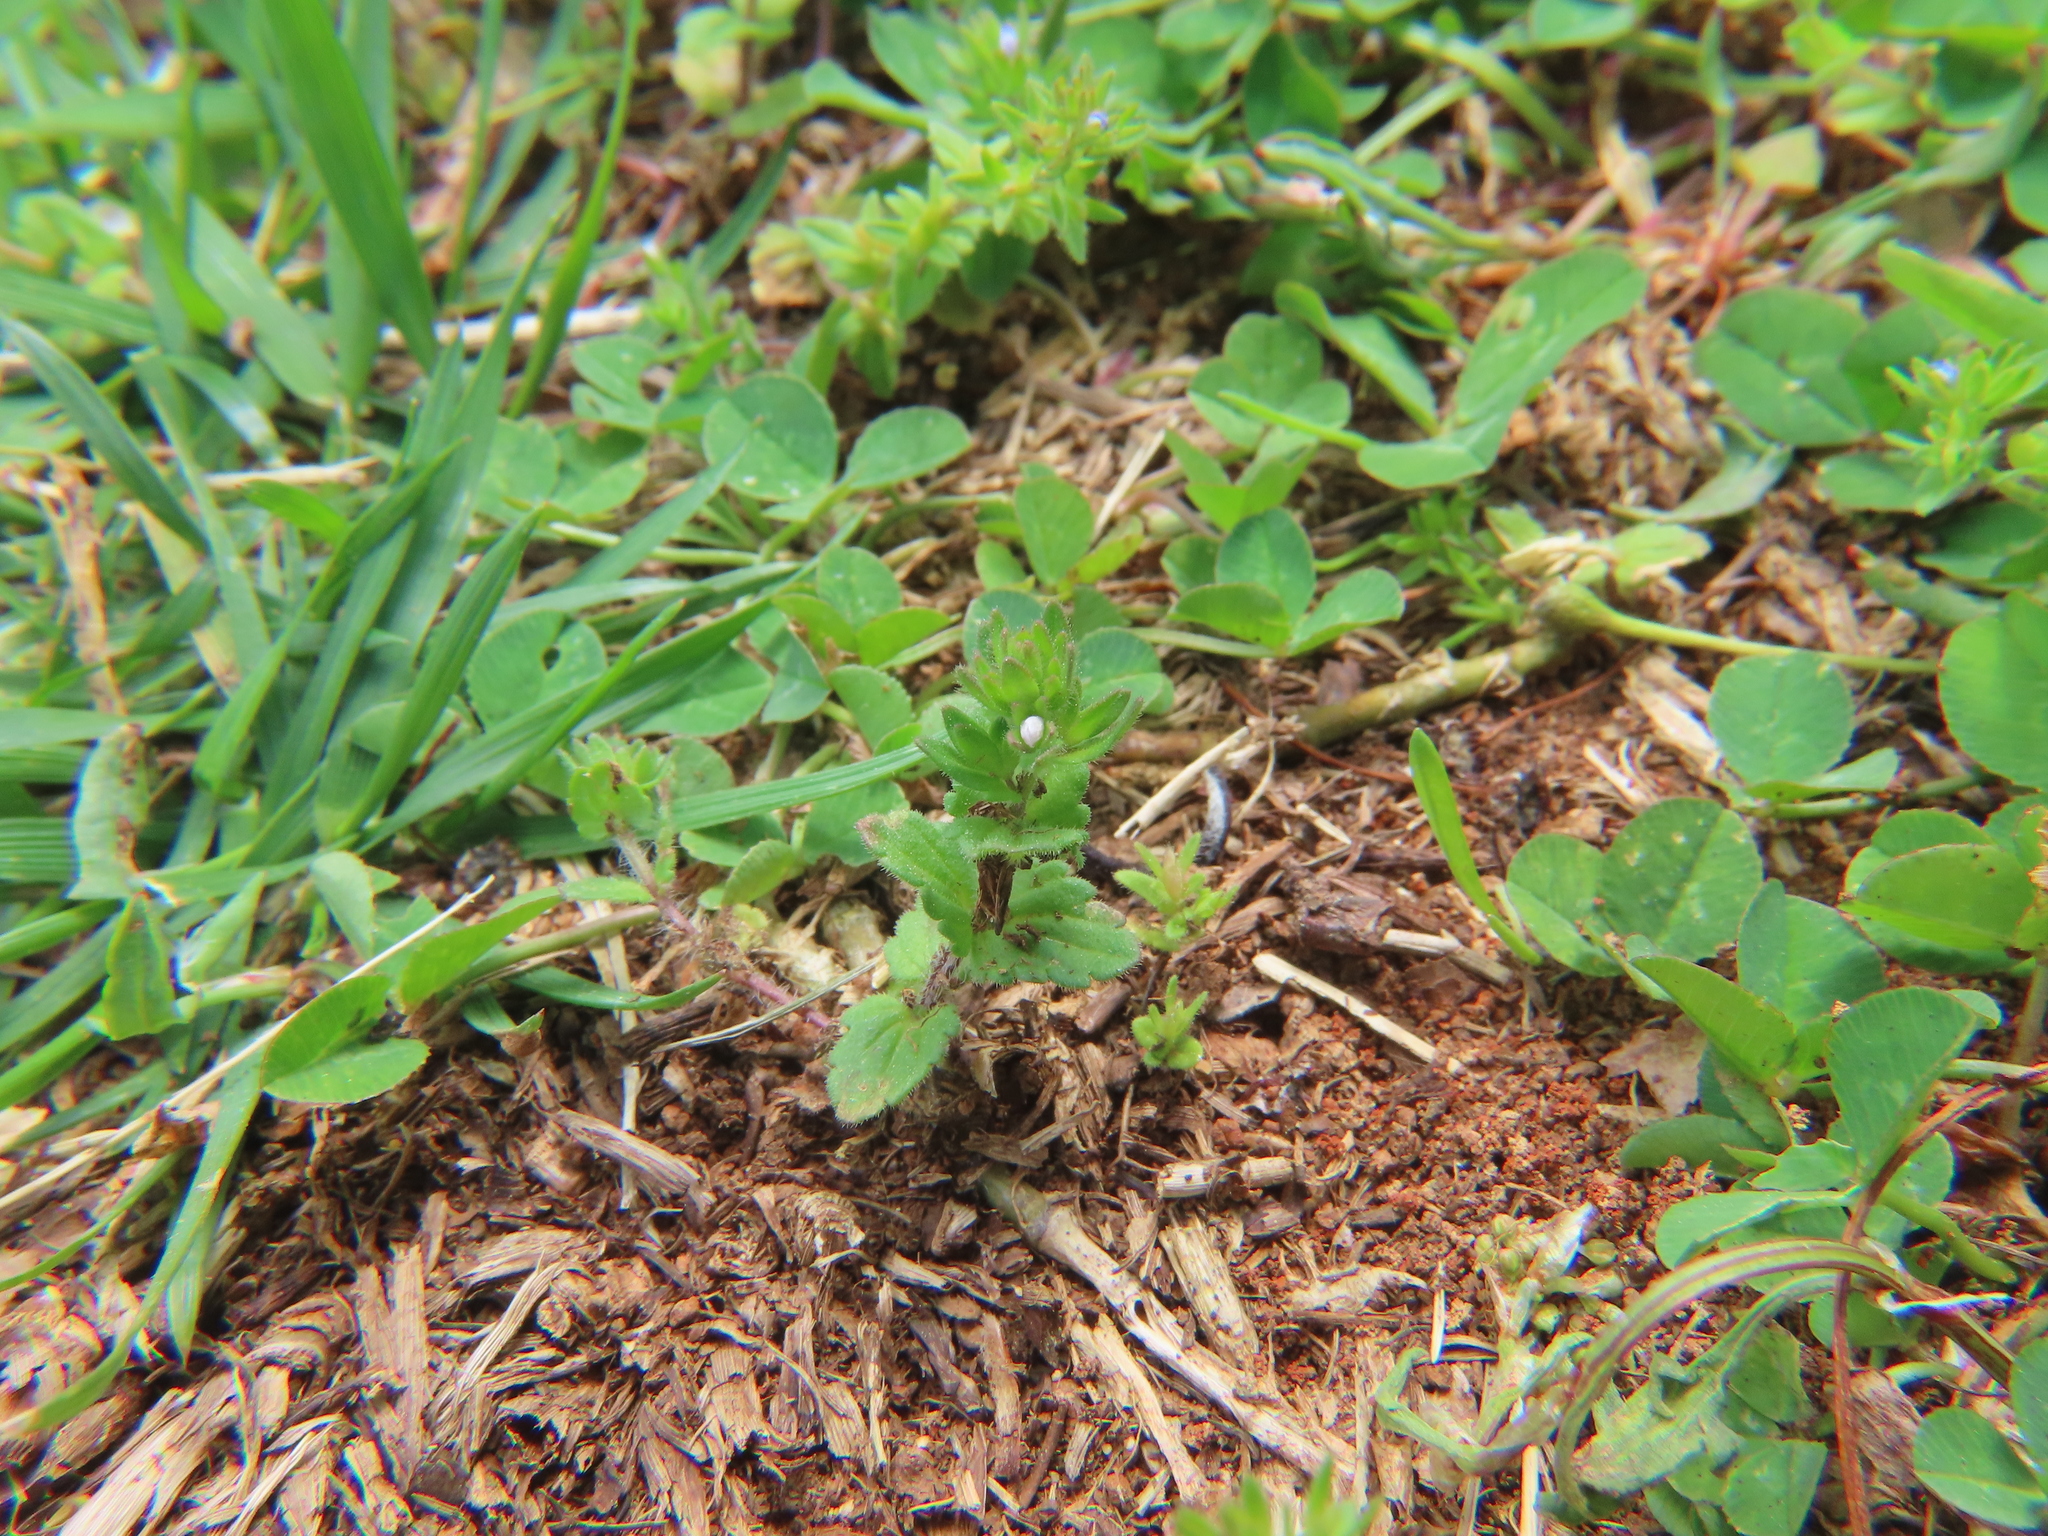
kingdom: Plantae
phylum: Tracheophyta
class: Magnoliopsida
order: Lamiales
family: Plantaginaceae
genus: Veronica
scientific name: Veronica arvensis
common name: Corn speedwell
